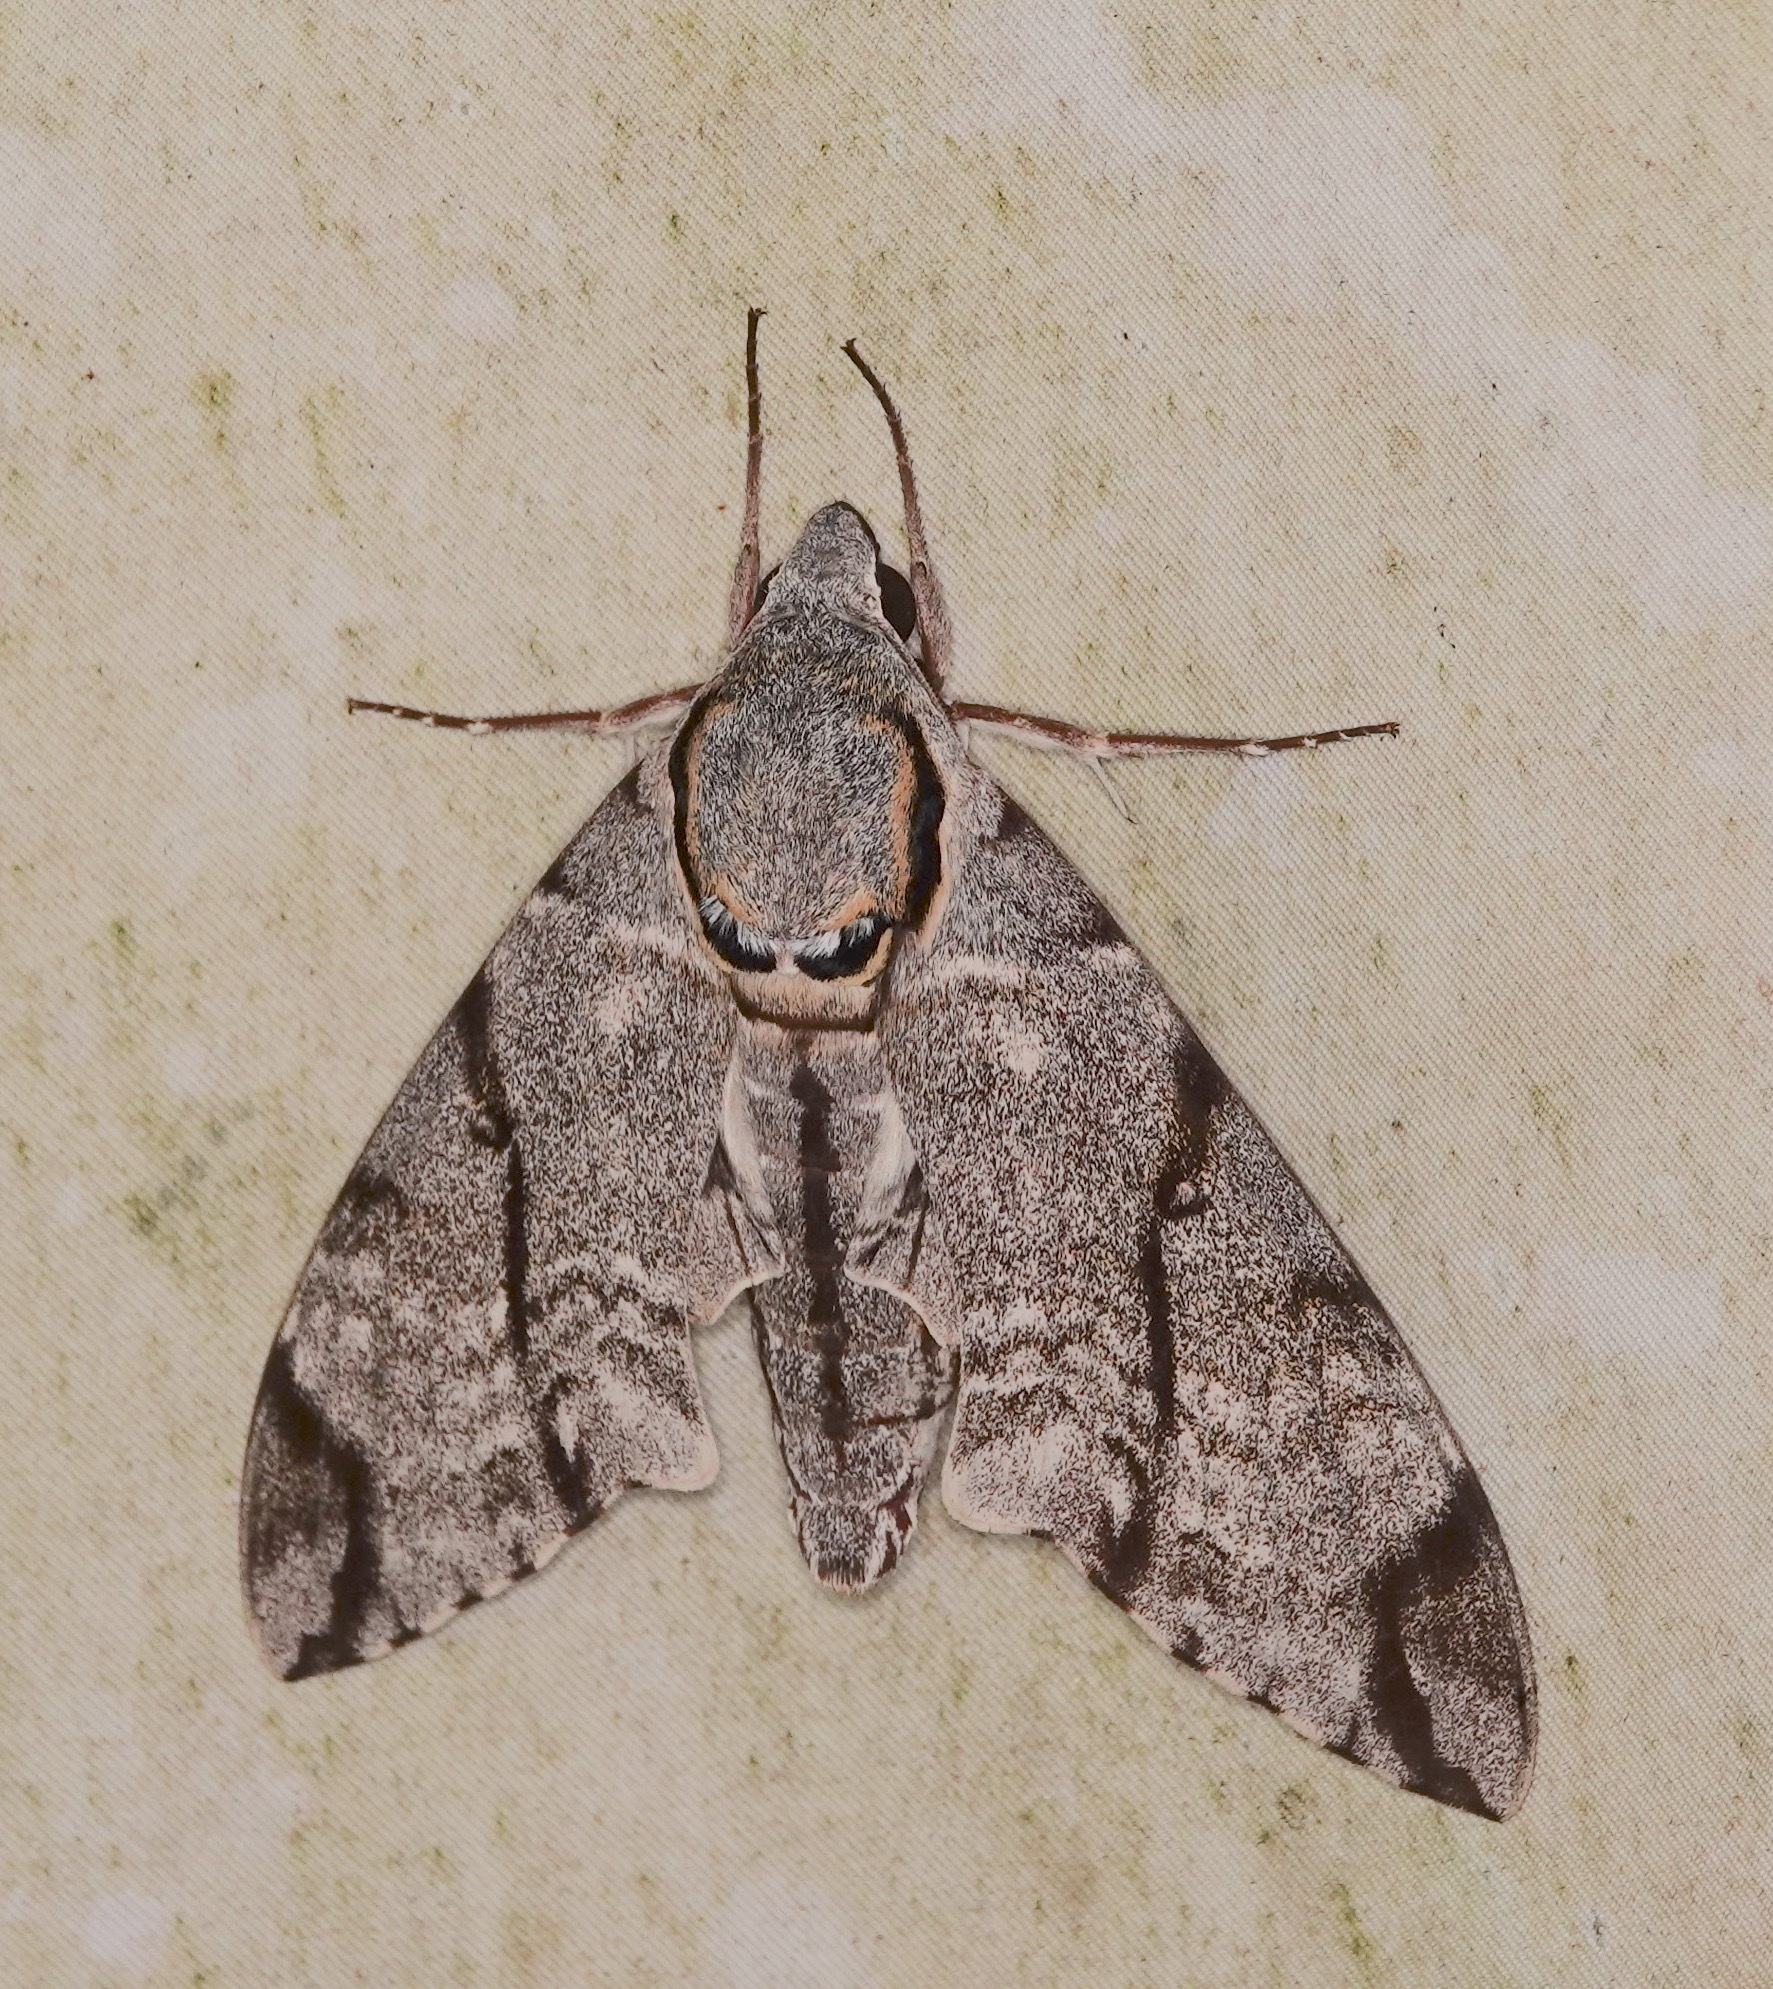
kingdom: Animalia
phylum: Arthropoda
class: Insecta
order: Lepidoptera
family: Sphingidae
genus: Notonagemia
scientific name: Notonagemia analis
